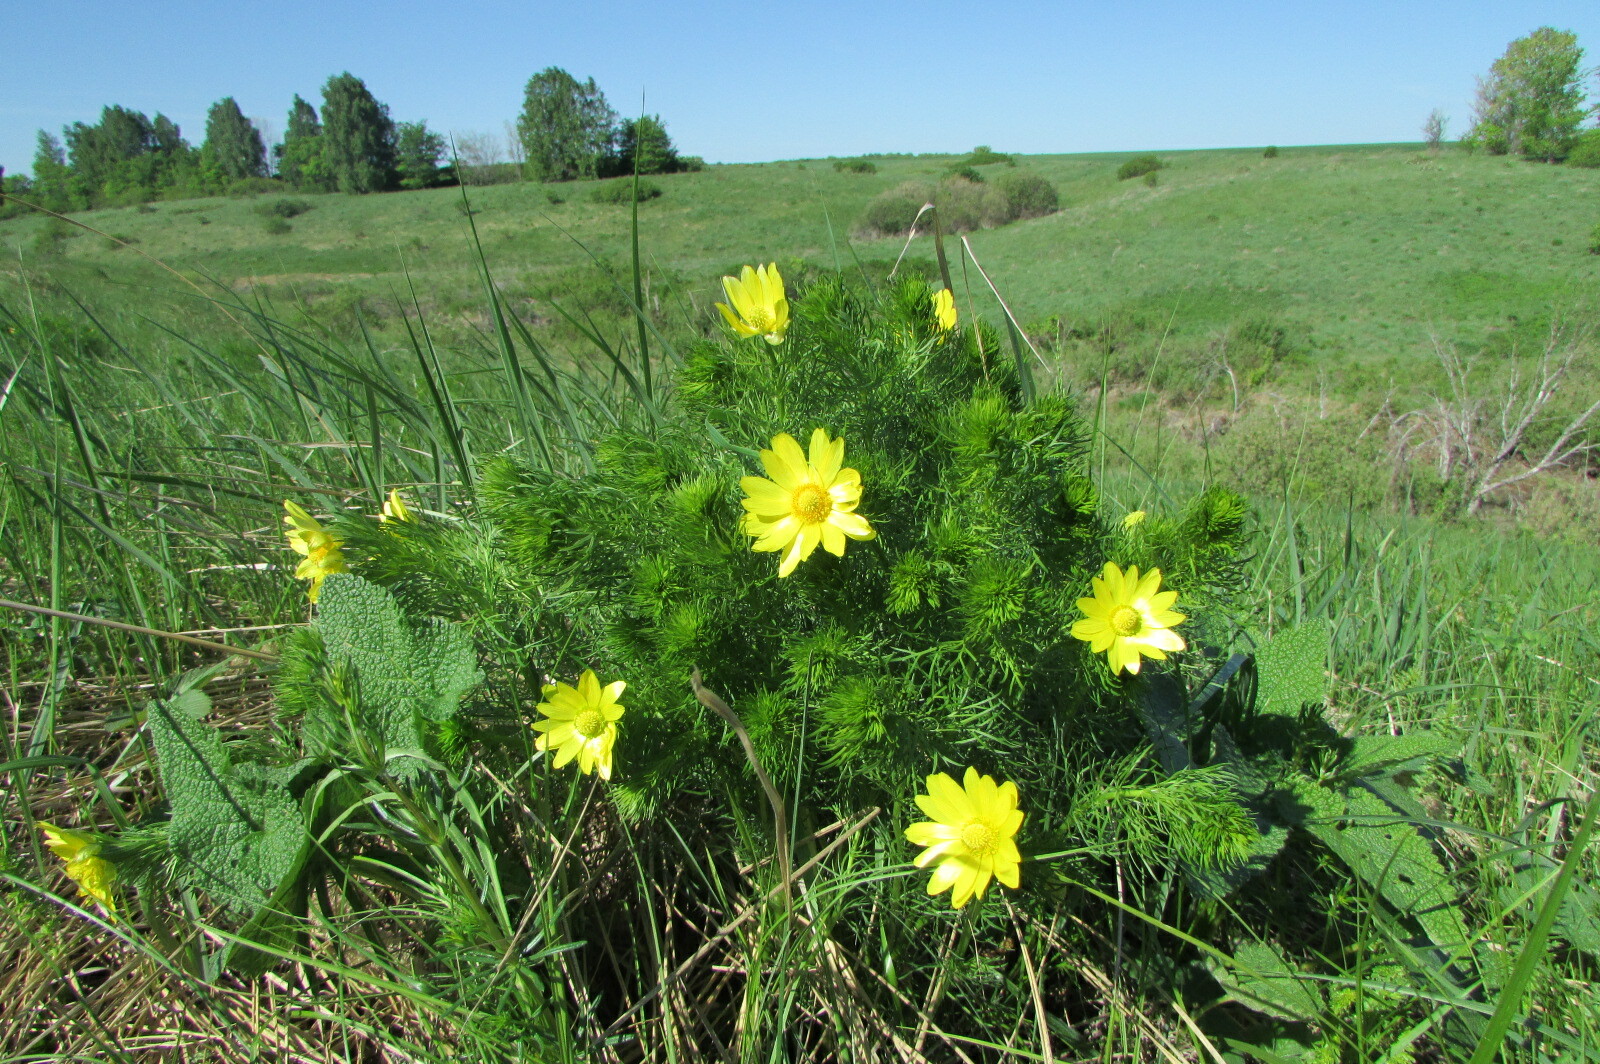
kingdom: Plantae
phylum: Tracheophyta
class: Magnoliopsida
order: Ranunculales
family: Ranunculaceae
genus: Adonis
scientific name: Adonis vernalis
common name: Yellow pheasants-eye
